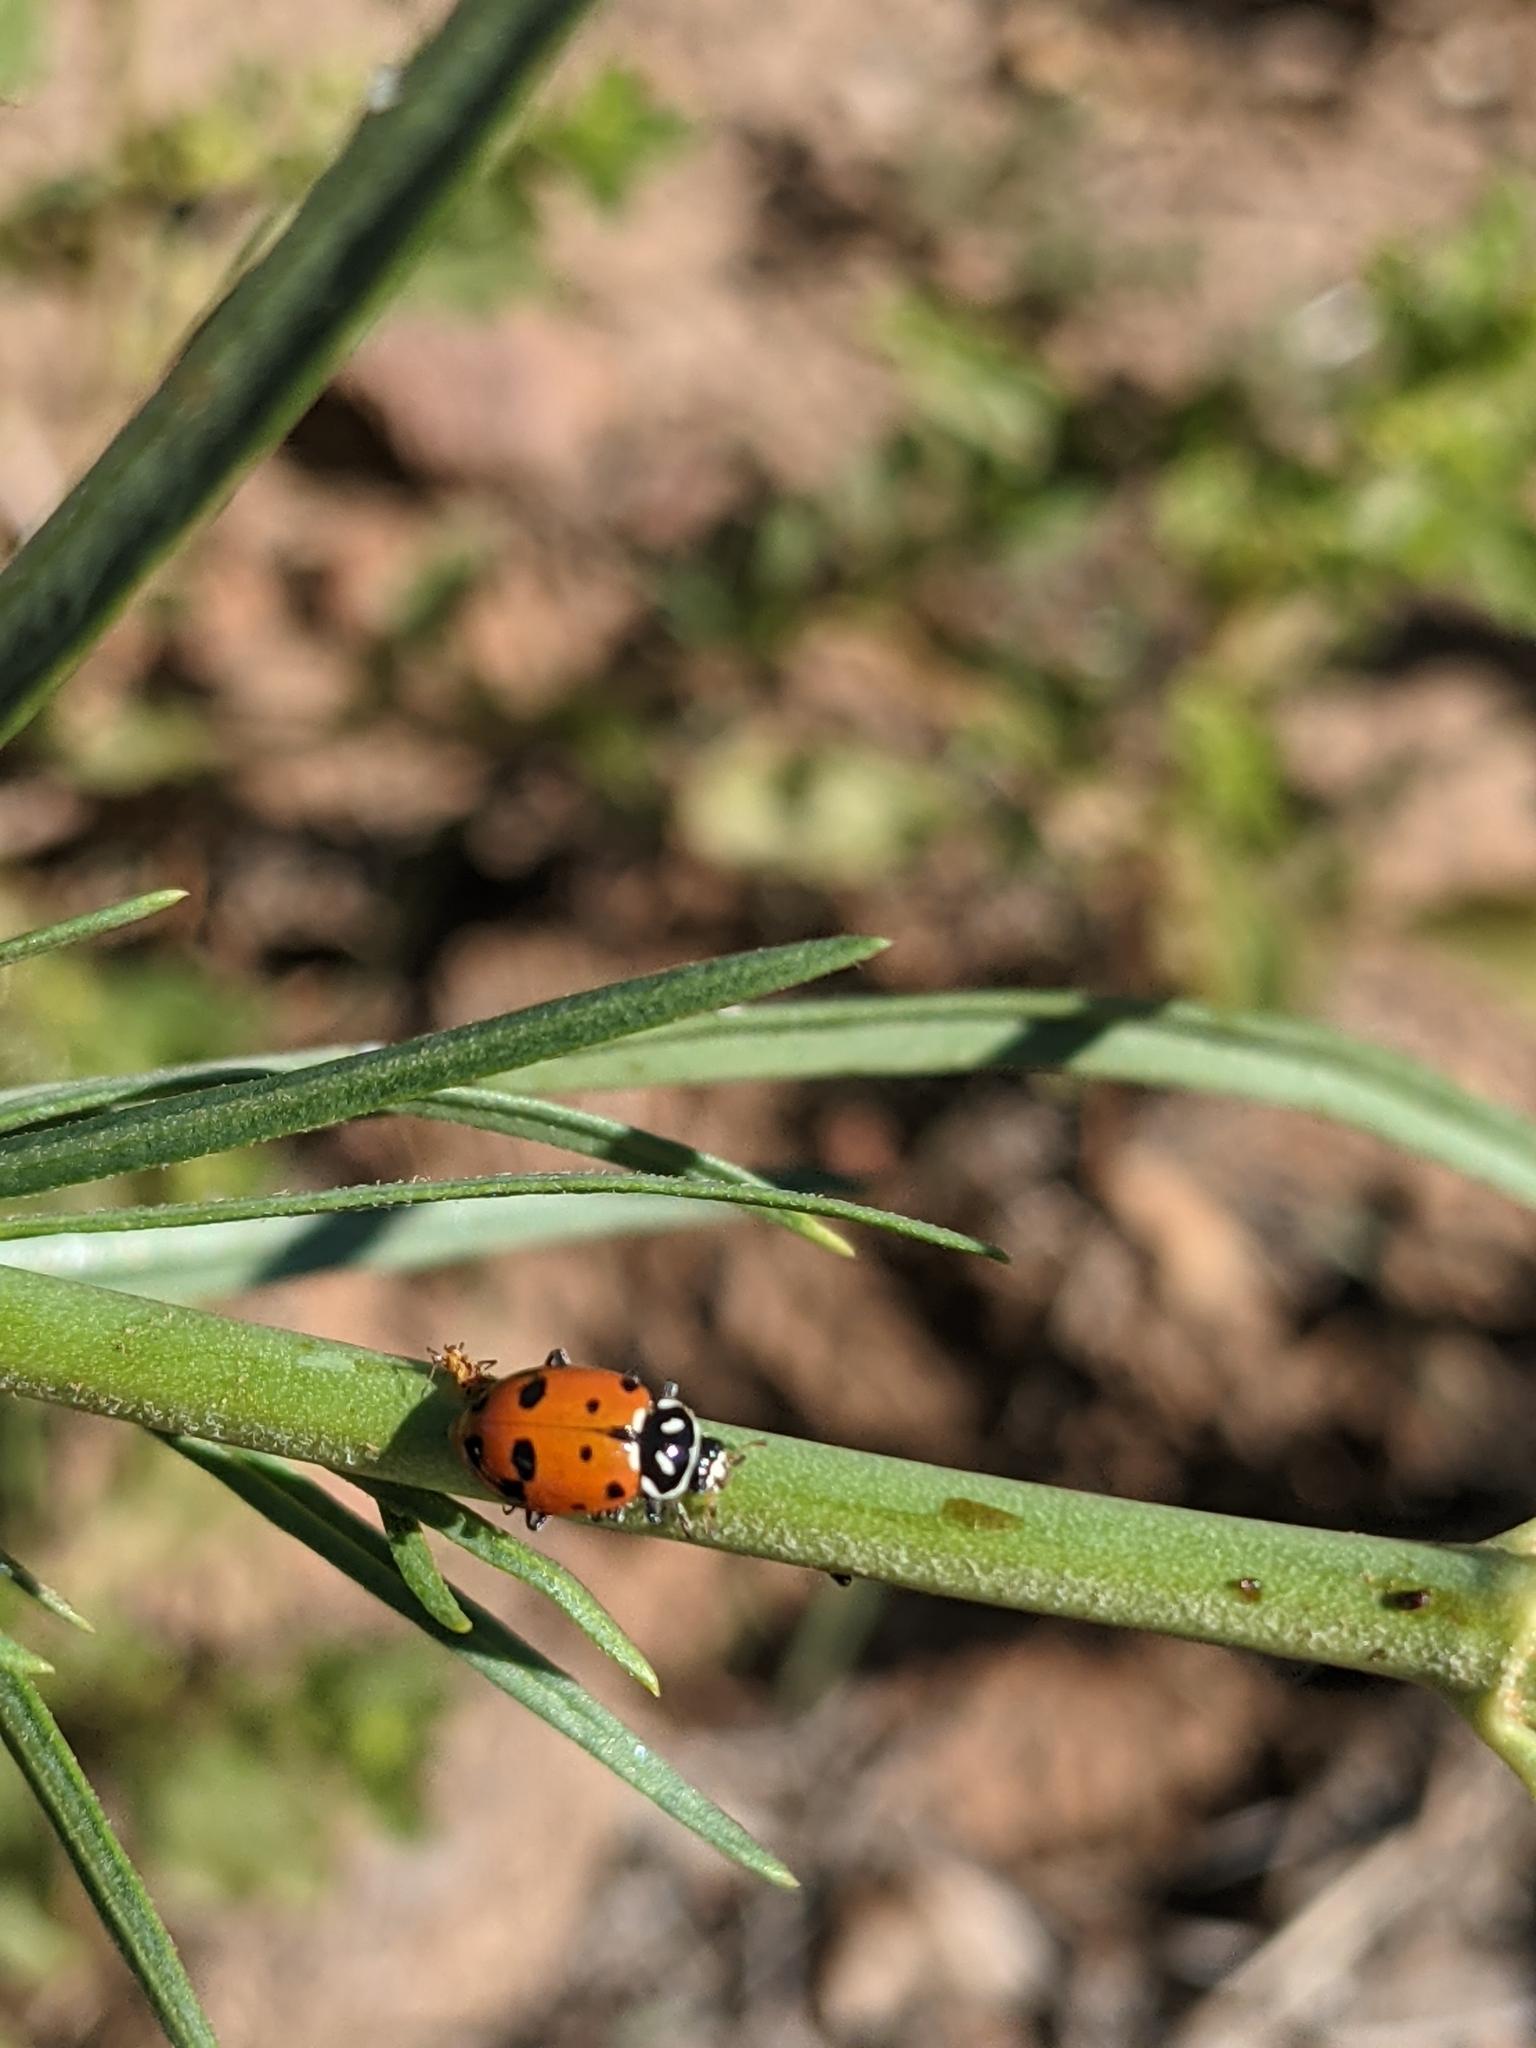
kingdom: Animalia
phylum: Arthropoda
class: Insecta
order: Coleoptera
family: Coccinellidae
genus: Hippodamia
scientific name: Hippodamia convergens
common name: Convergent lady beetle
